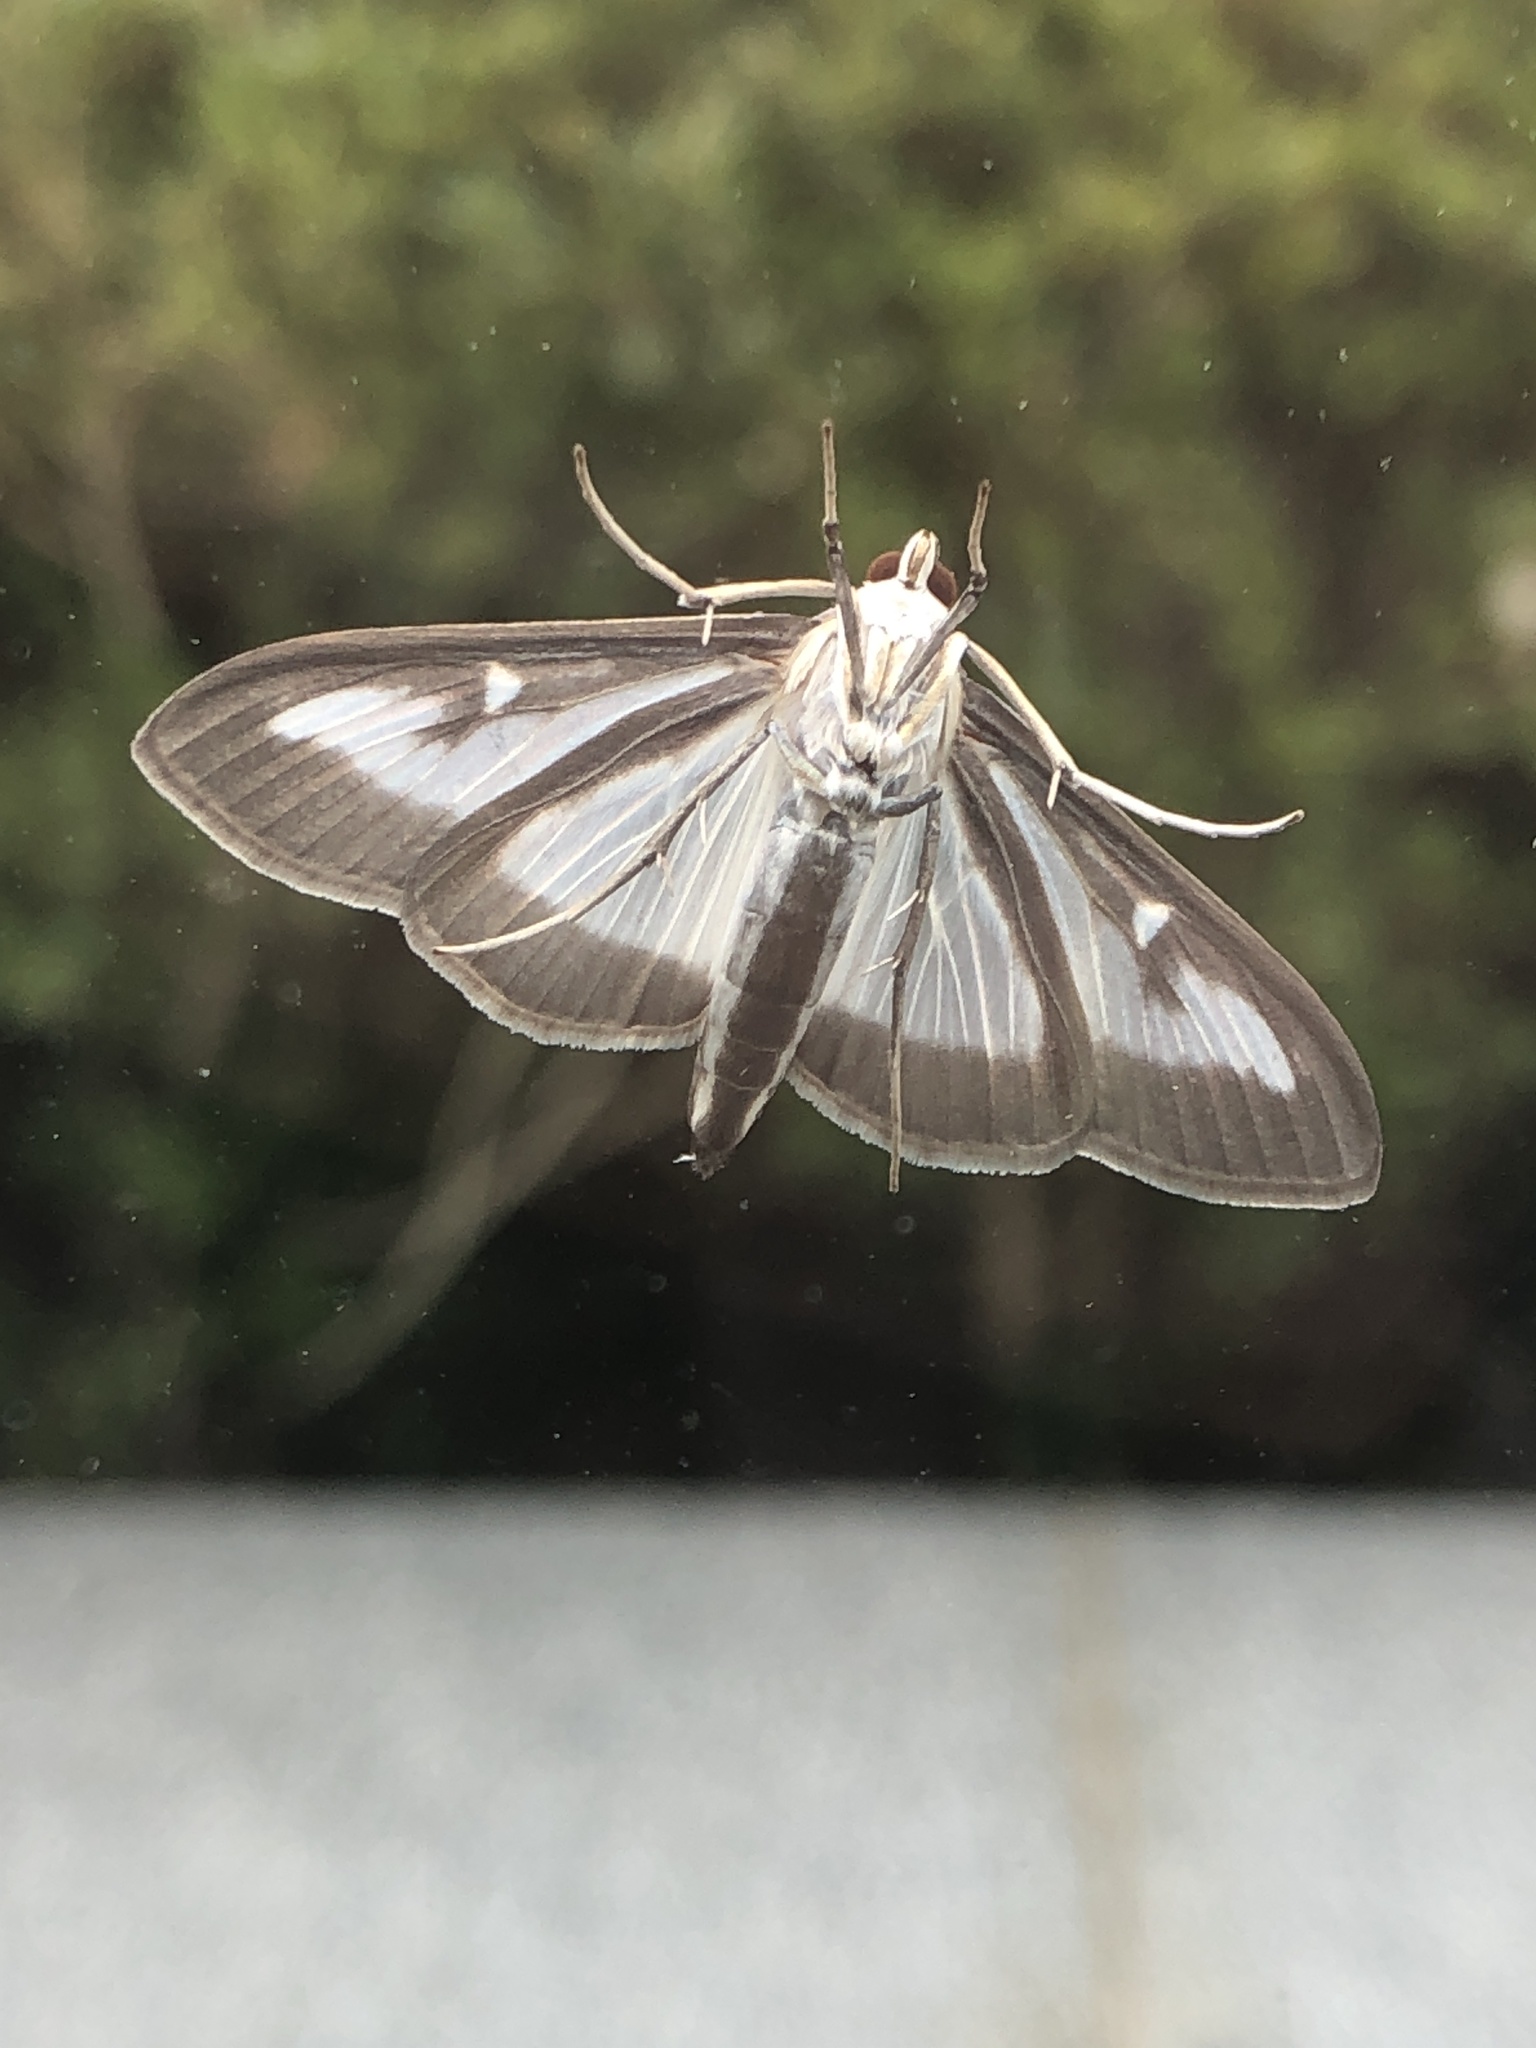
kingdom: Animalia
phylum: Arthropoda
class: Insecta
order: Lepidoptera
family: Crambidae
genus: Cydalima
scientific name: Cydalima perspectalis
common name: Box tree moth
